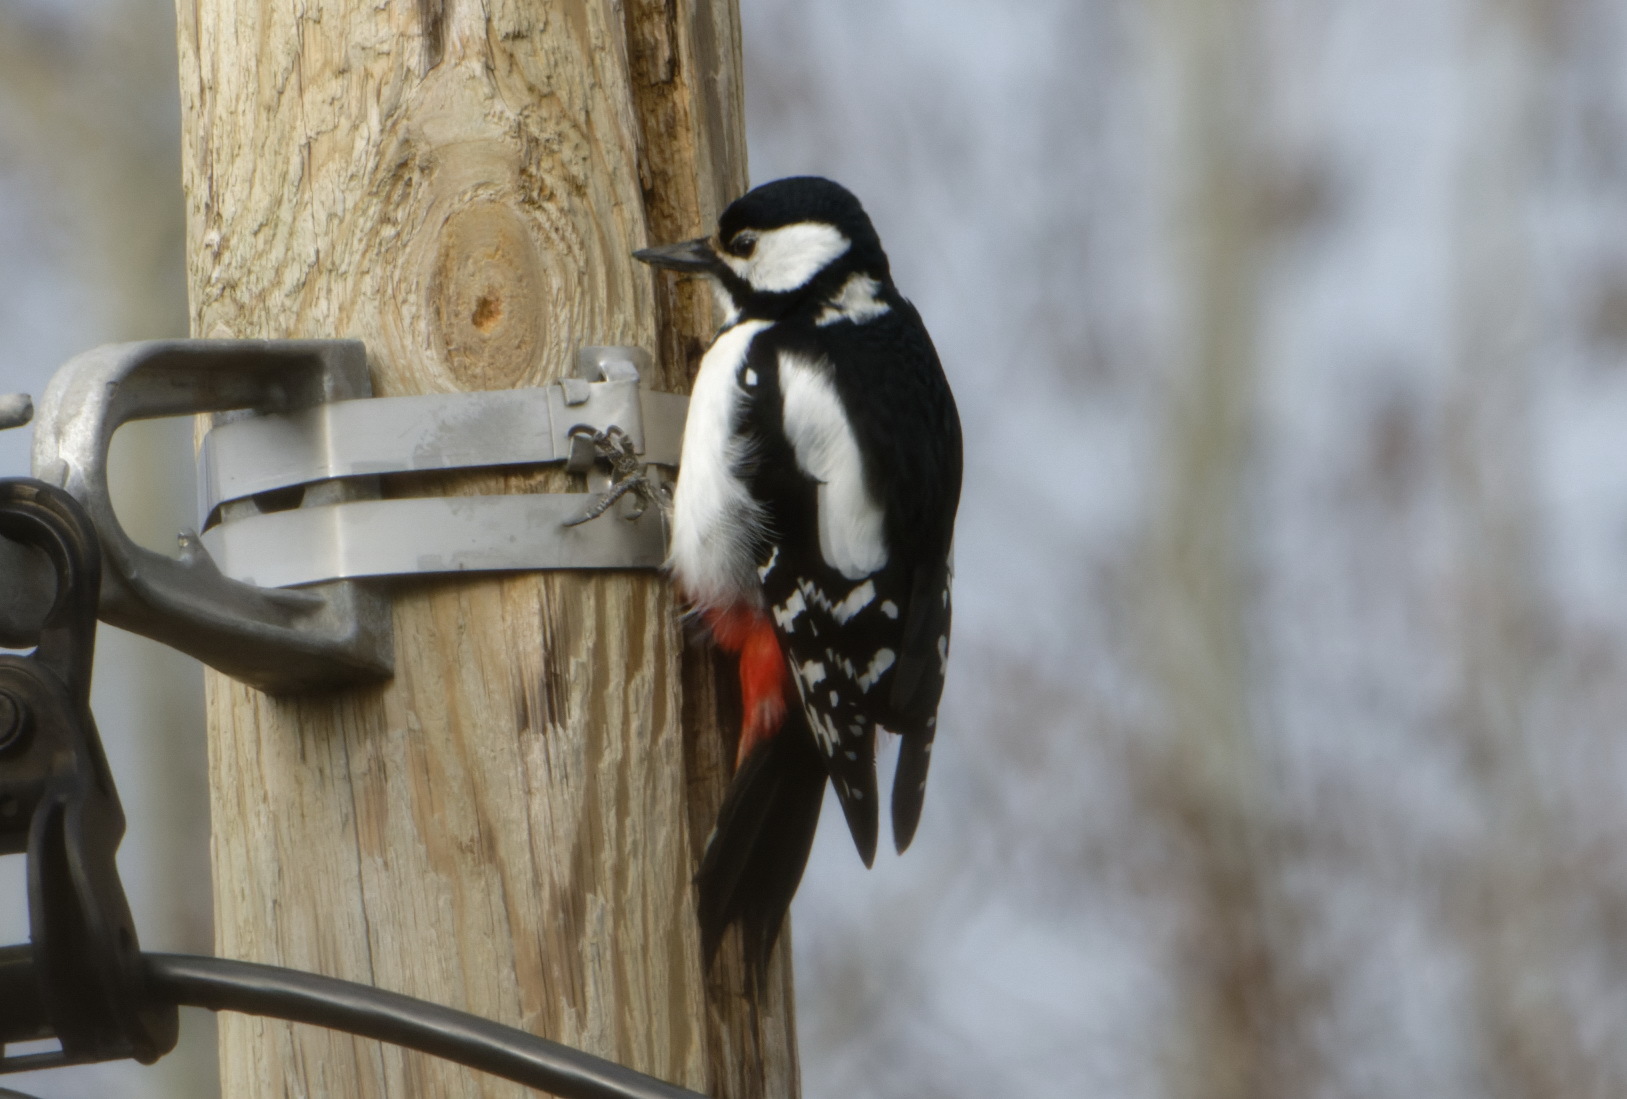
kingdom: Animalia
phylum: Chordata
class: Aves
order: Piciformes
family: Picidae
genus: Dendrocopos
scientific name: Dendrocopos major
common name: Great spotted woodpecker
